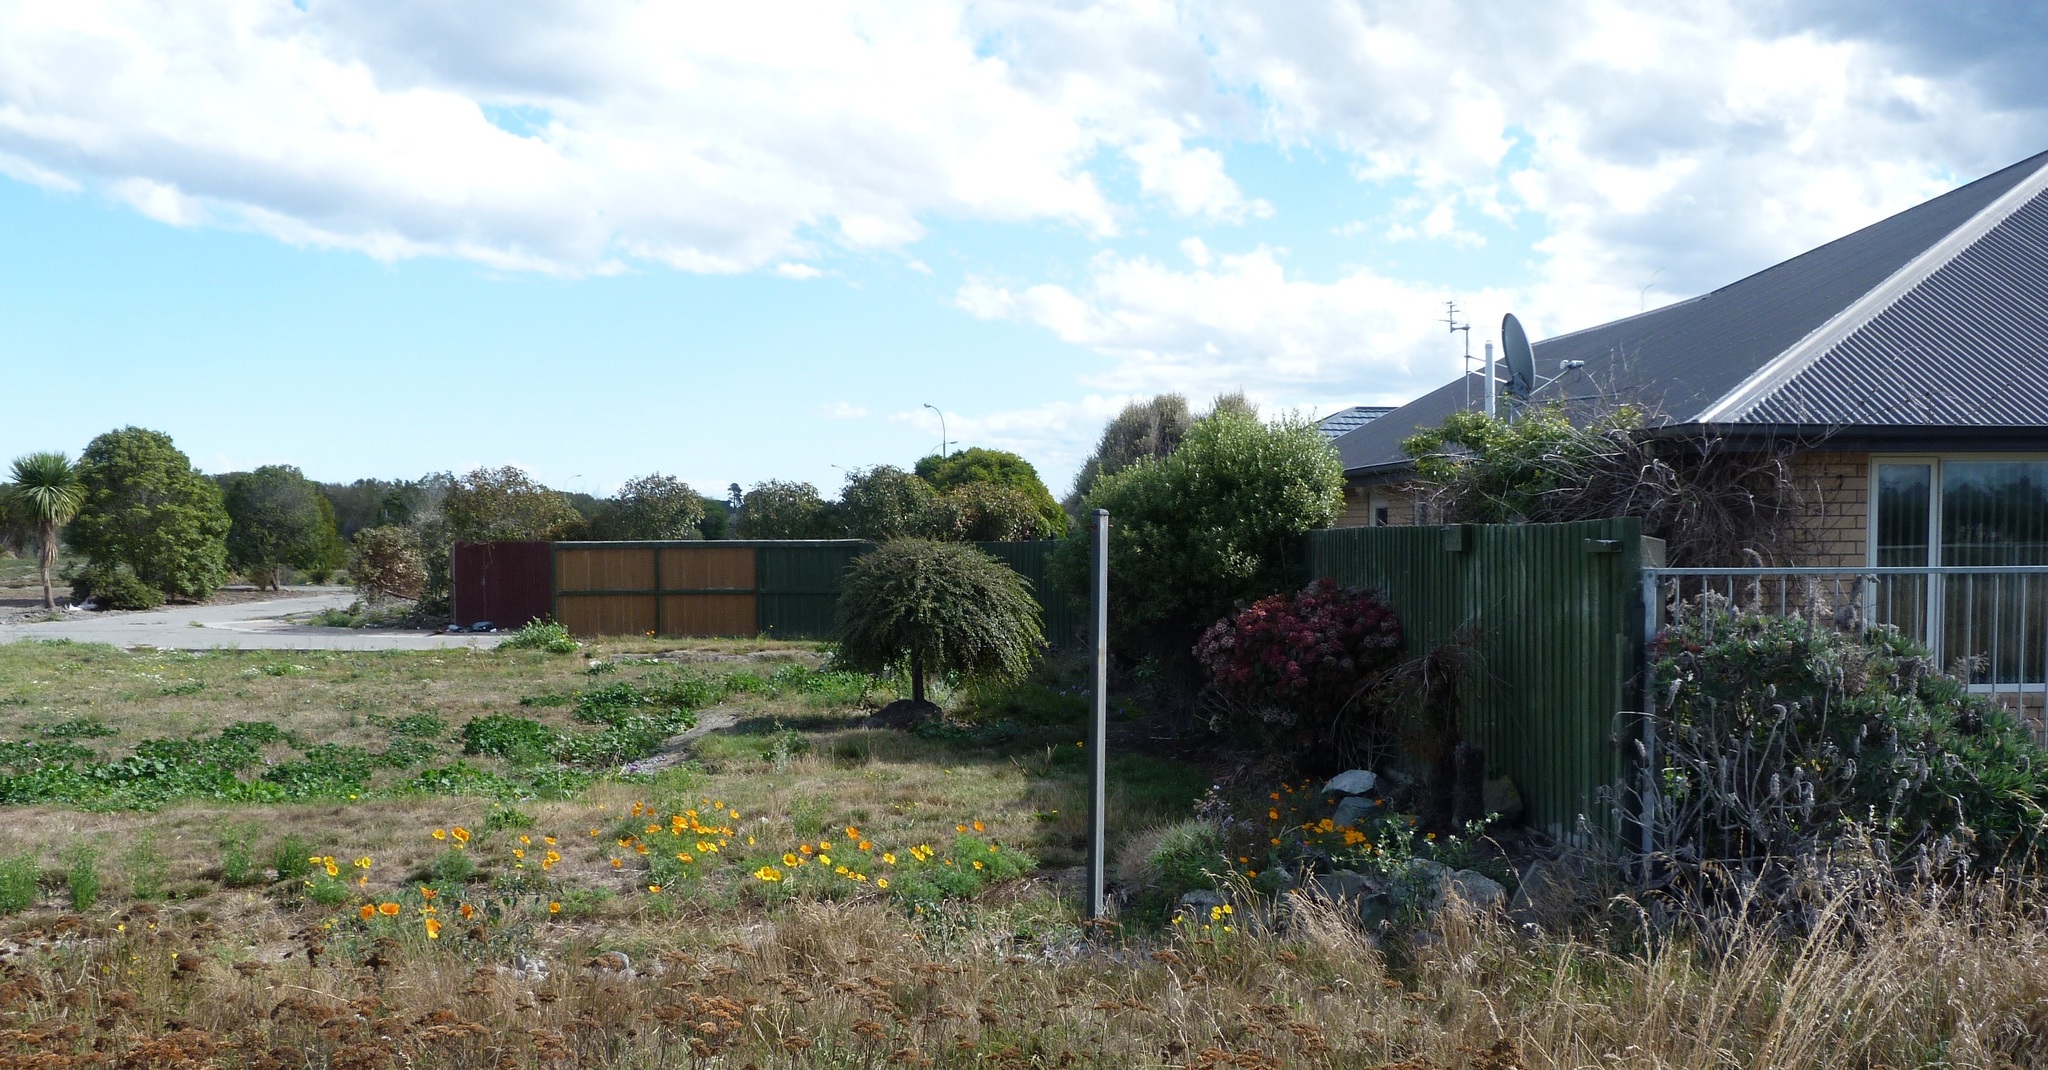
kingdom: Plantae
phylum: Tracheophyta
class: Magnoliopsida
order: Ranunculales
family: Papaveraceae
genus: Eschscholzia
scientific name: Eschscholzia californica
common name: California poppy
